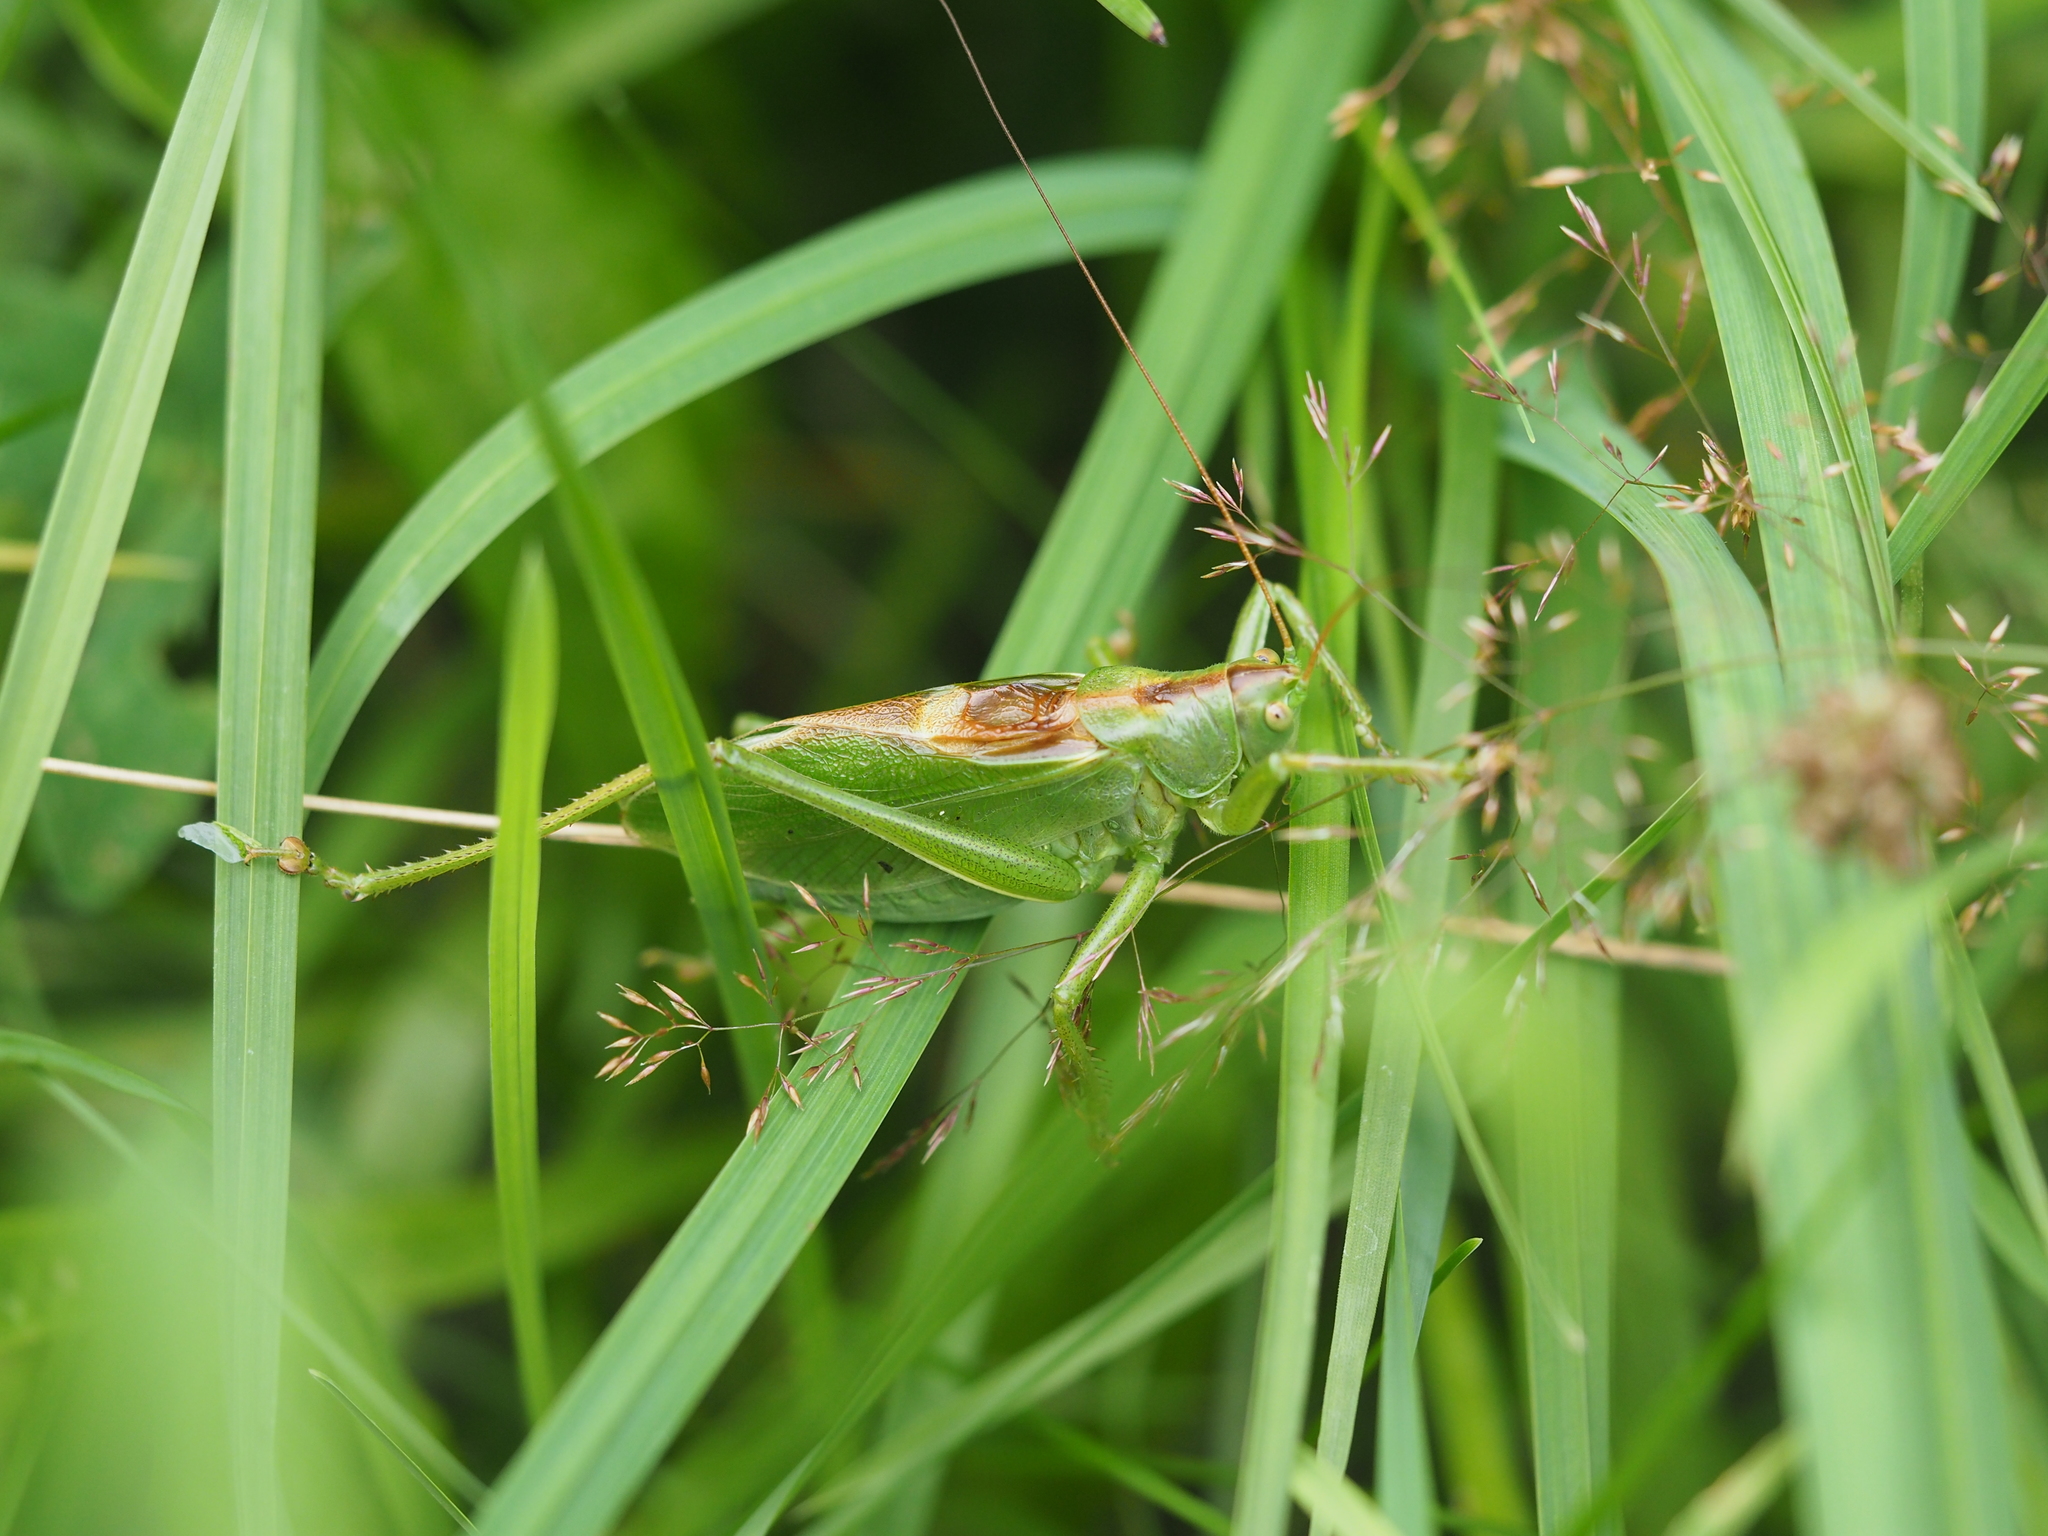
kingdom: Animalia
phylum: Arthropoda
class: Insecta
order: Orthoptera
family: Tettigoniidae
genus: Tettigonia
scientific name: Tettigonia cantans
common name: Upland green bush-cricket
